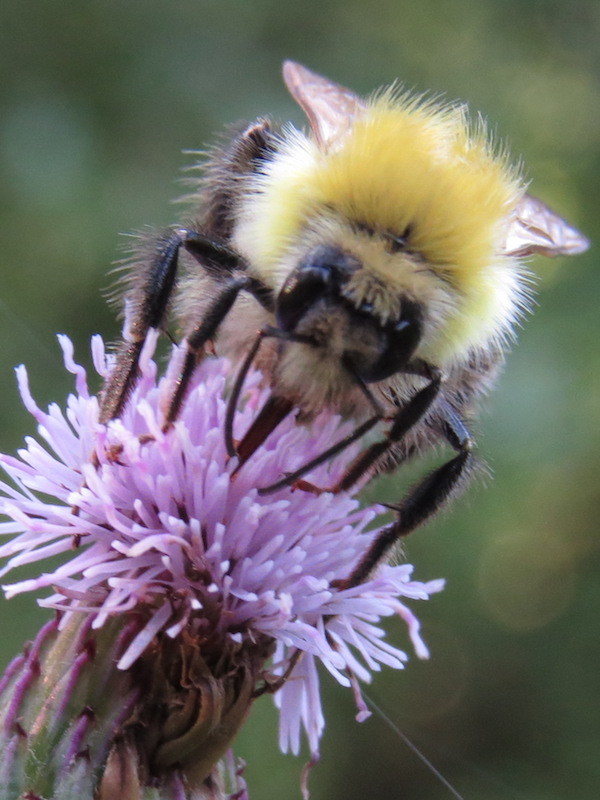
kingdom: Animalia
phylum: Arthropoda
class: Insecta
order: Hymenoptera
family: Apidae
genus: Bombus
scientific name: Bombus perplexus
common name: Confusing bumble bee
